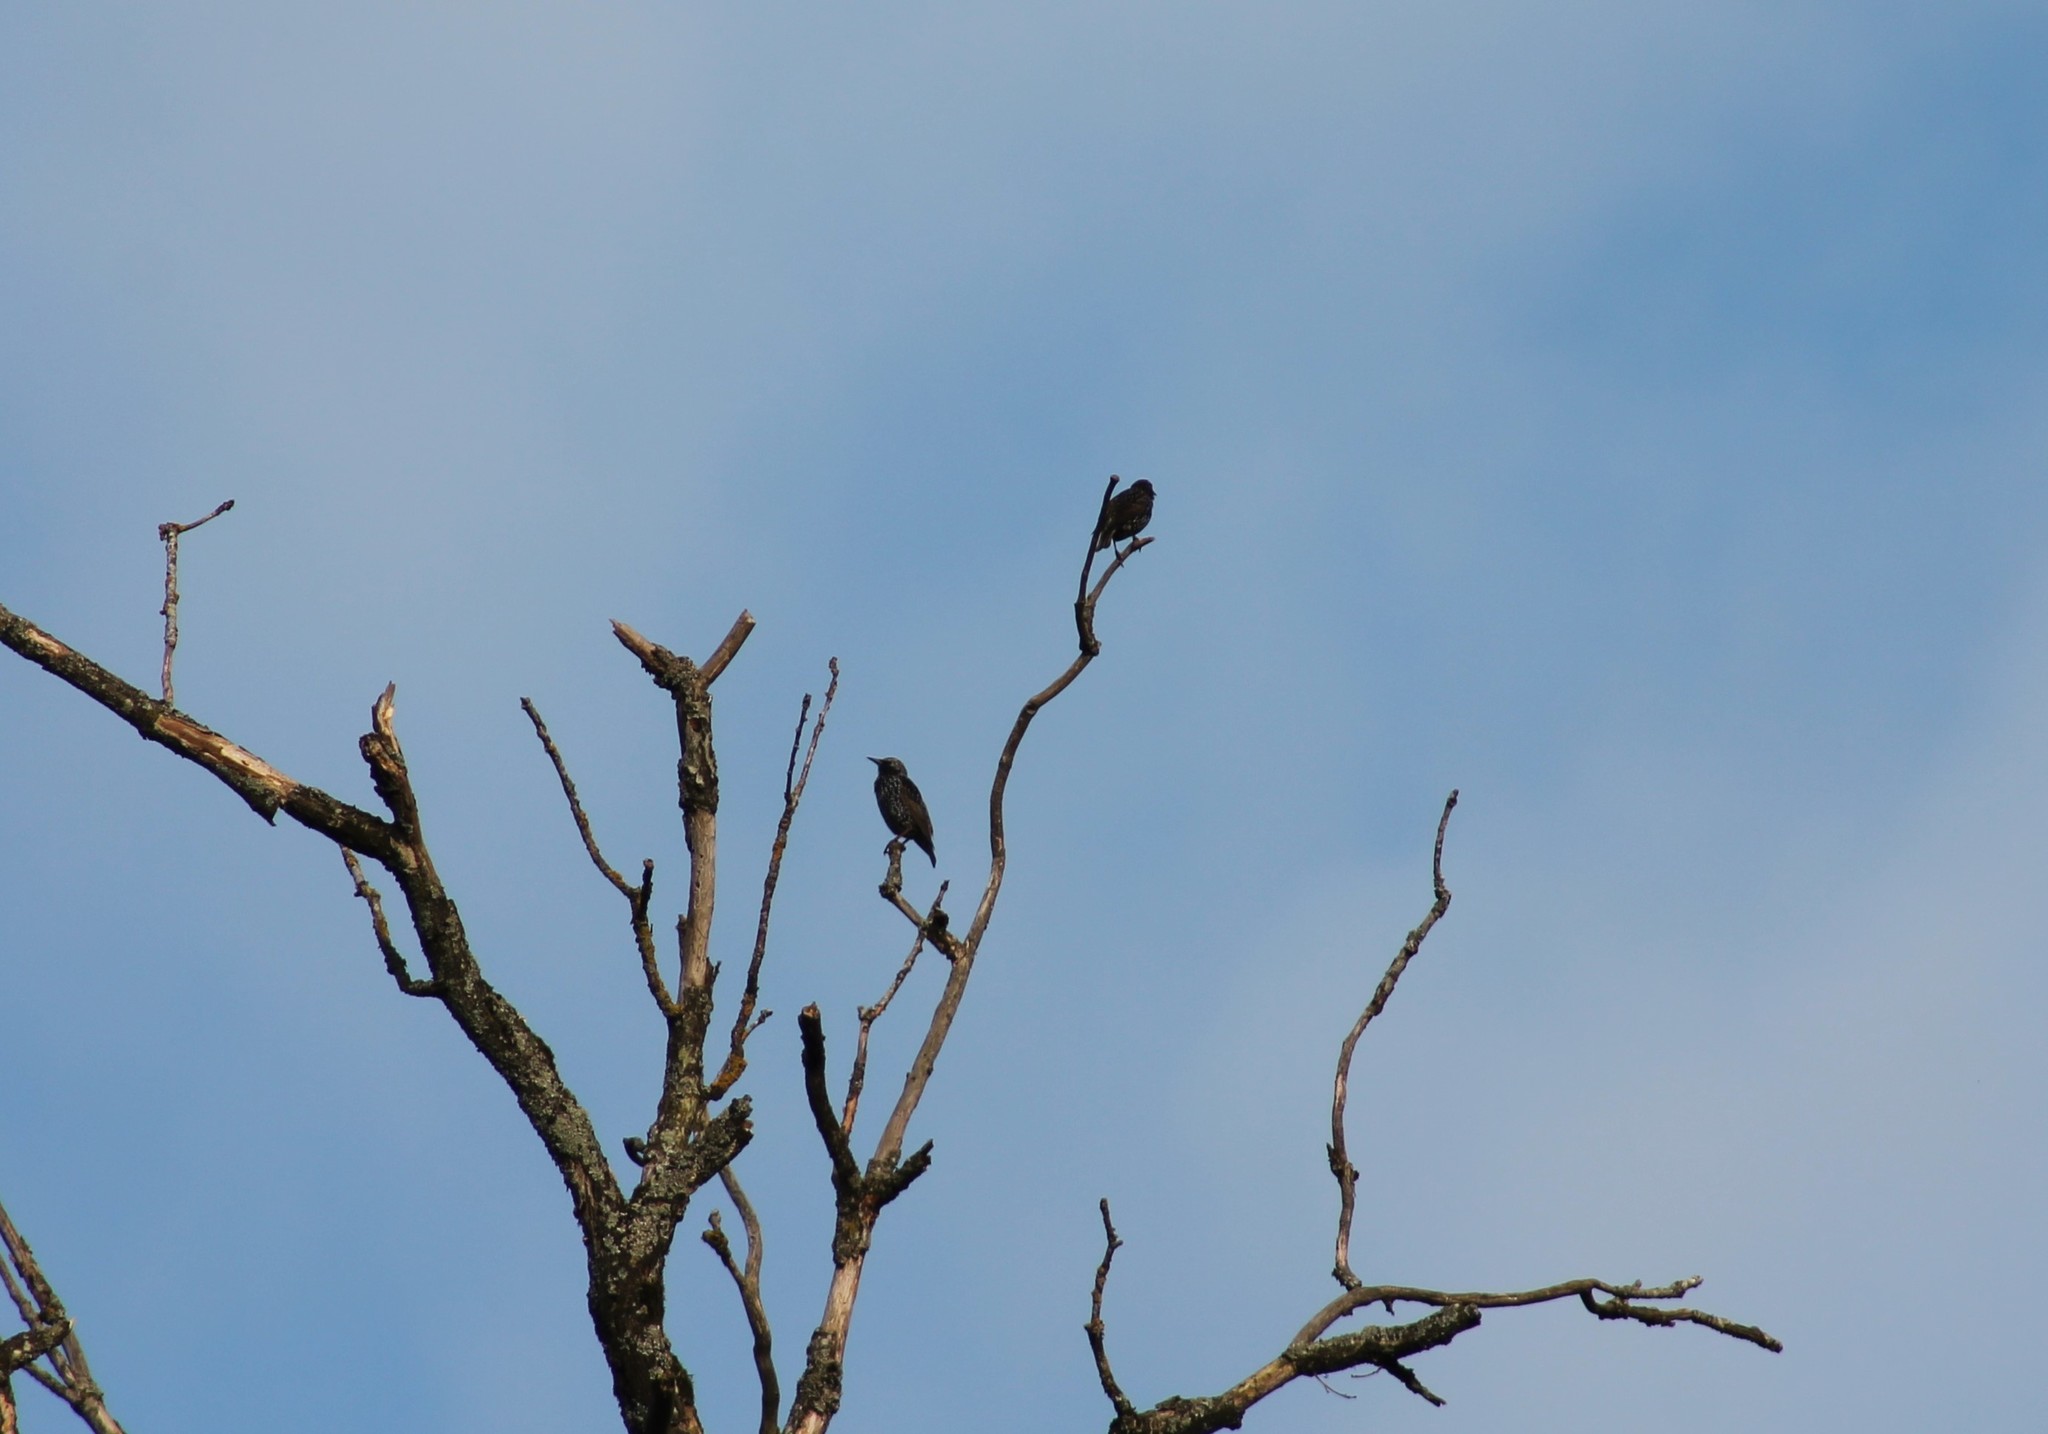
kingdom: Animalia
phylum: Chordata
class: Aves
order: Passeriformes
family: Sturnidae
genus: Sturnus
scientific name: Sturnus vulgaris
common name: Common starling
